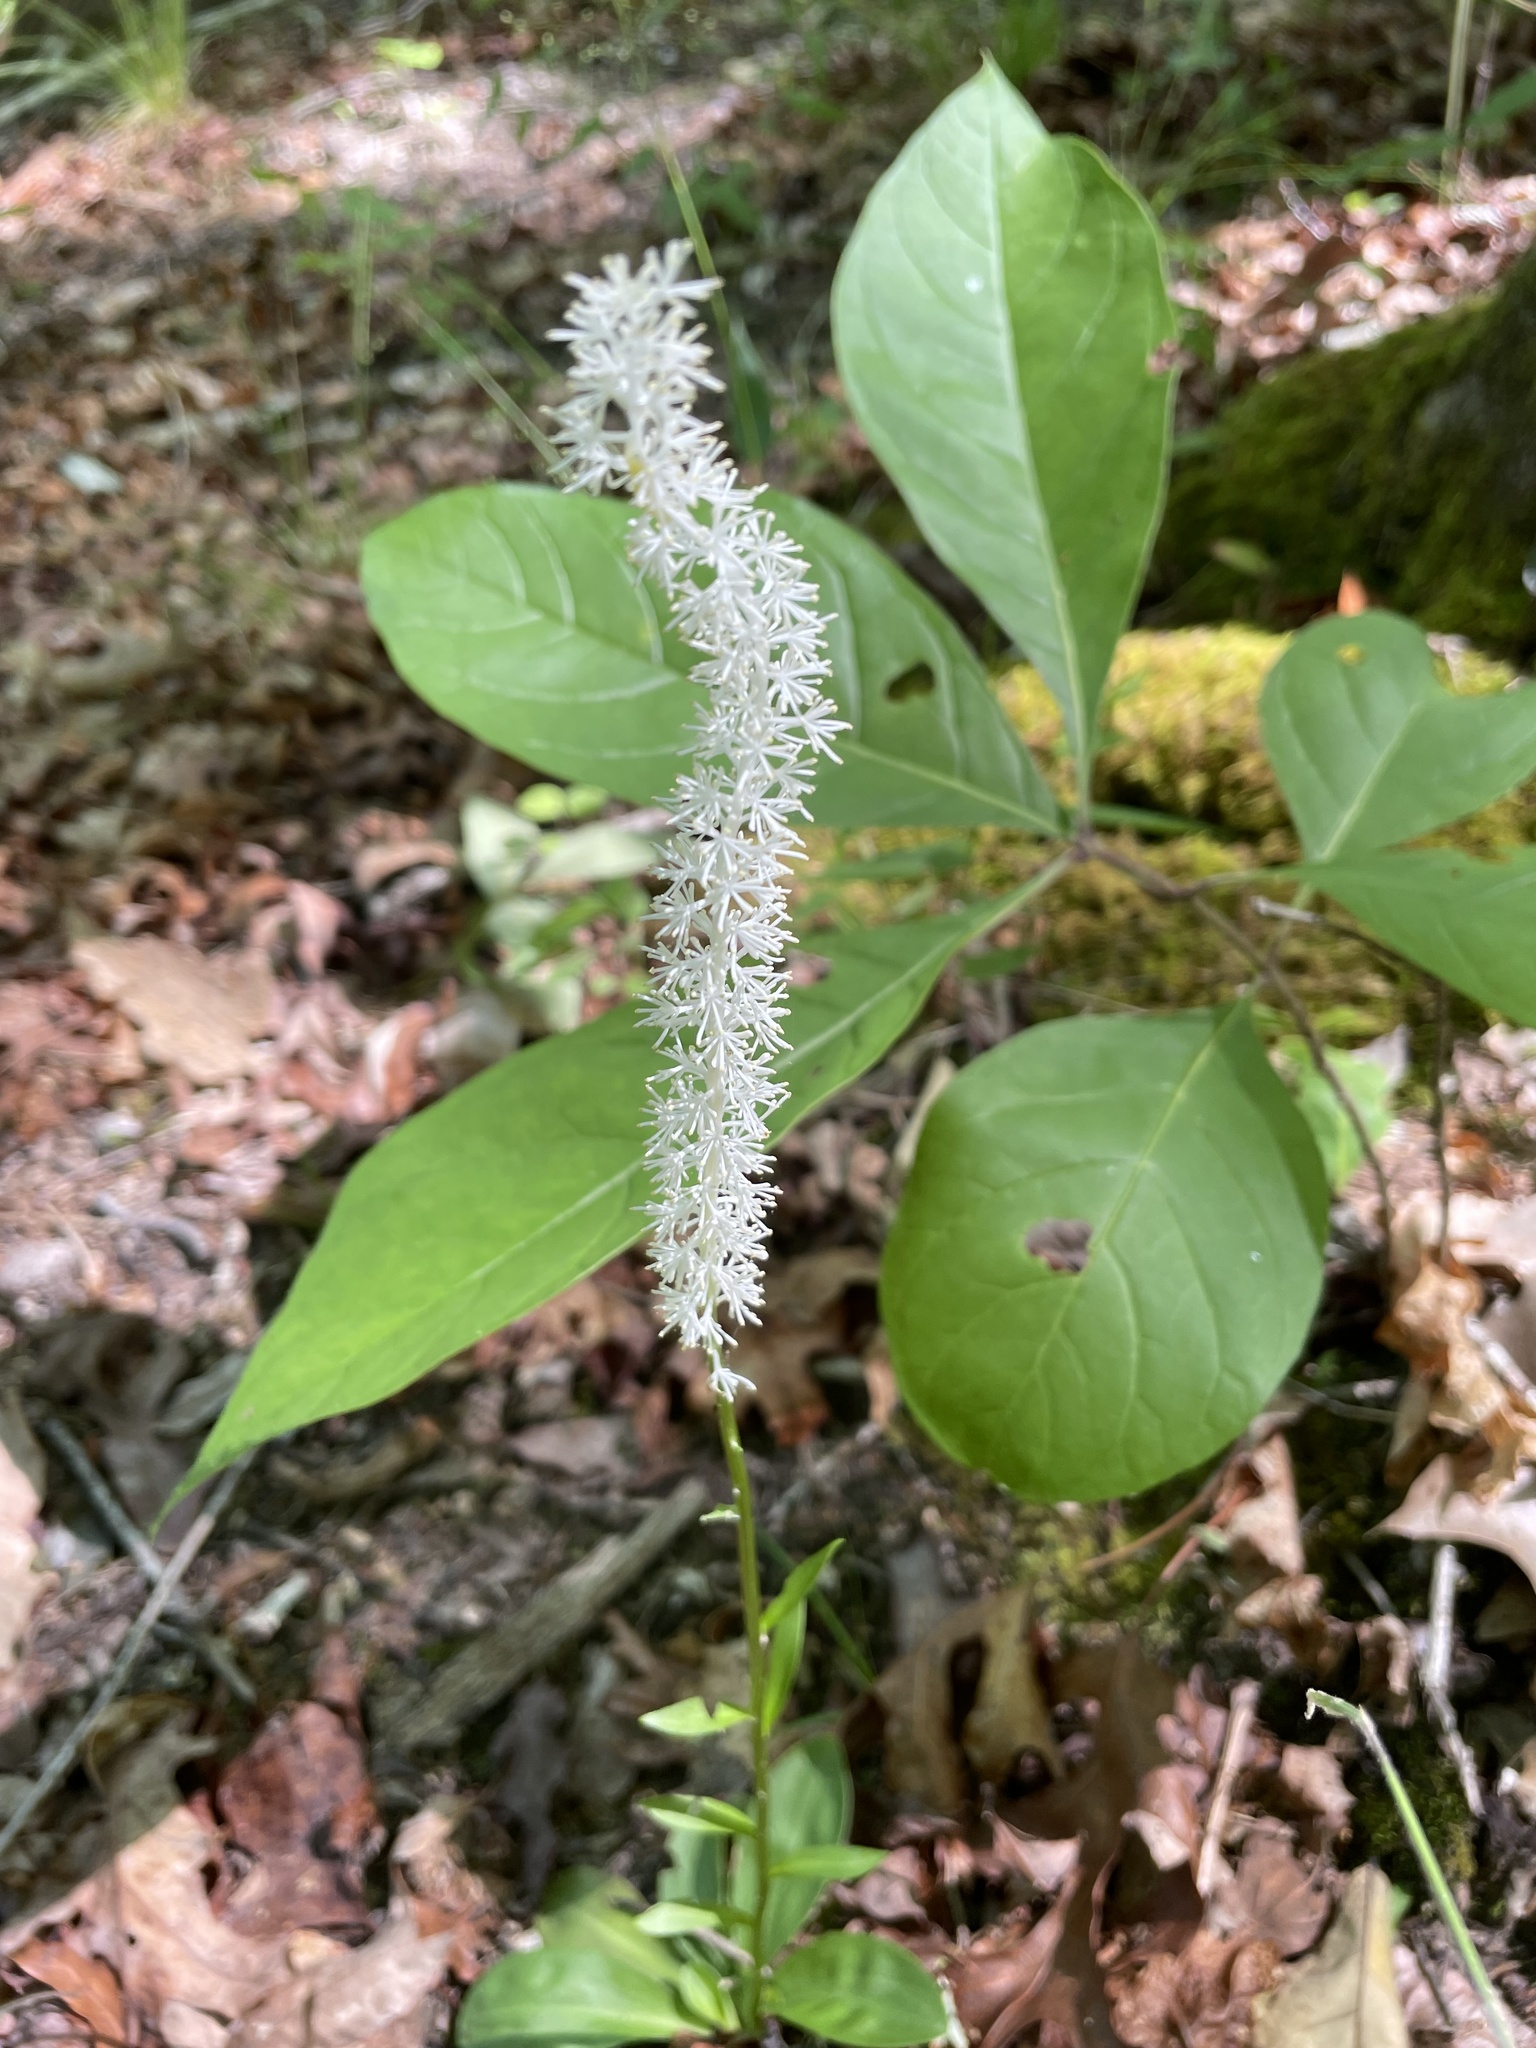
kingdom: Plantae
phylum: Tracheophyta
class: Liliopsida
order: Liliales
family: Melanthiaceae
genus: Chamaelirium
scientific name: Chamaelirium luteum
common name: Fairy-wand
